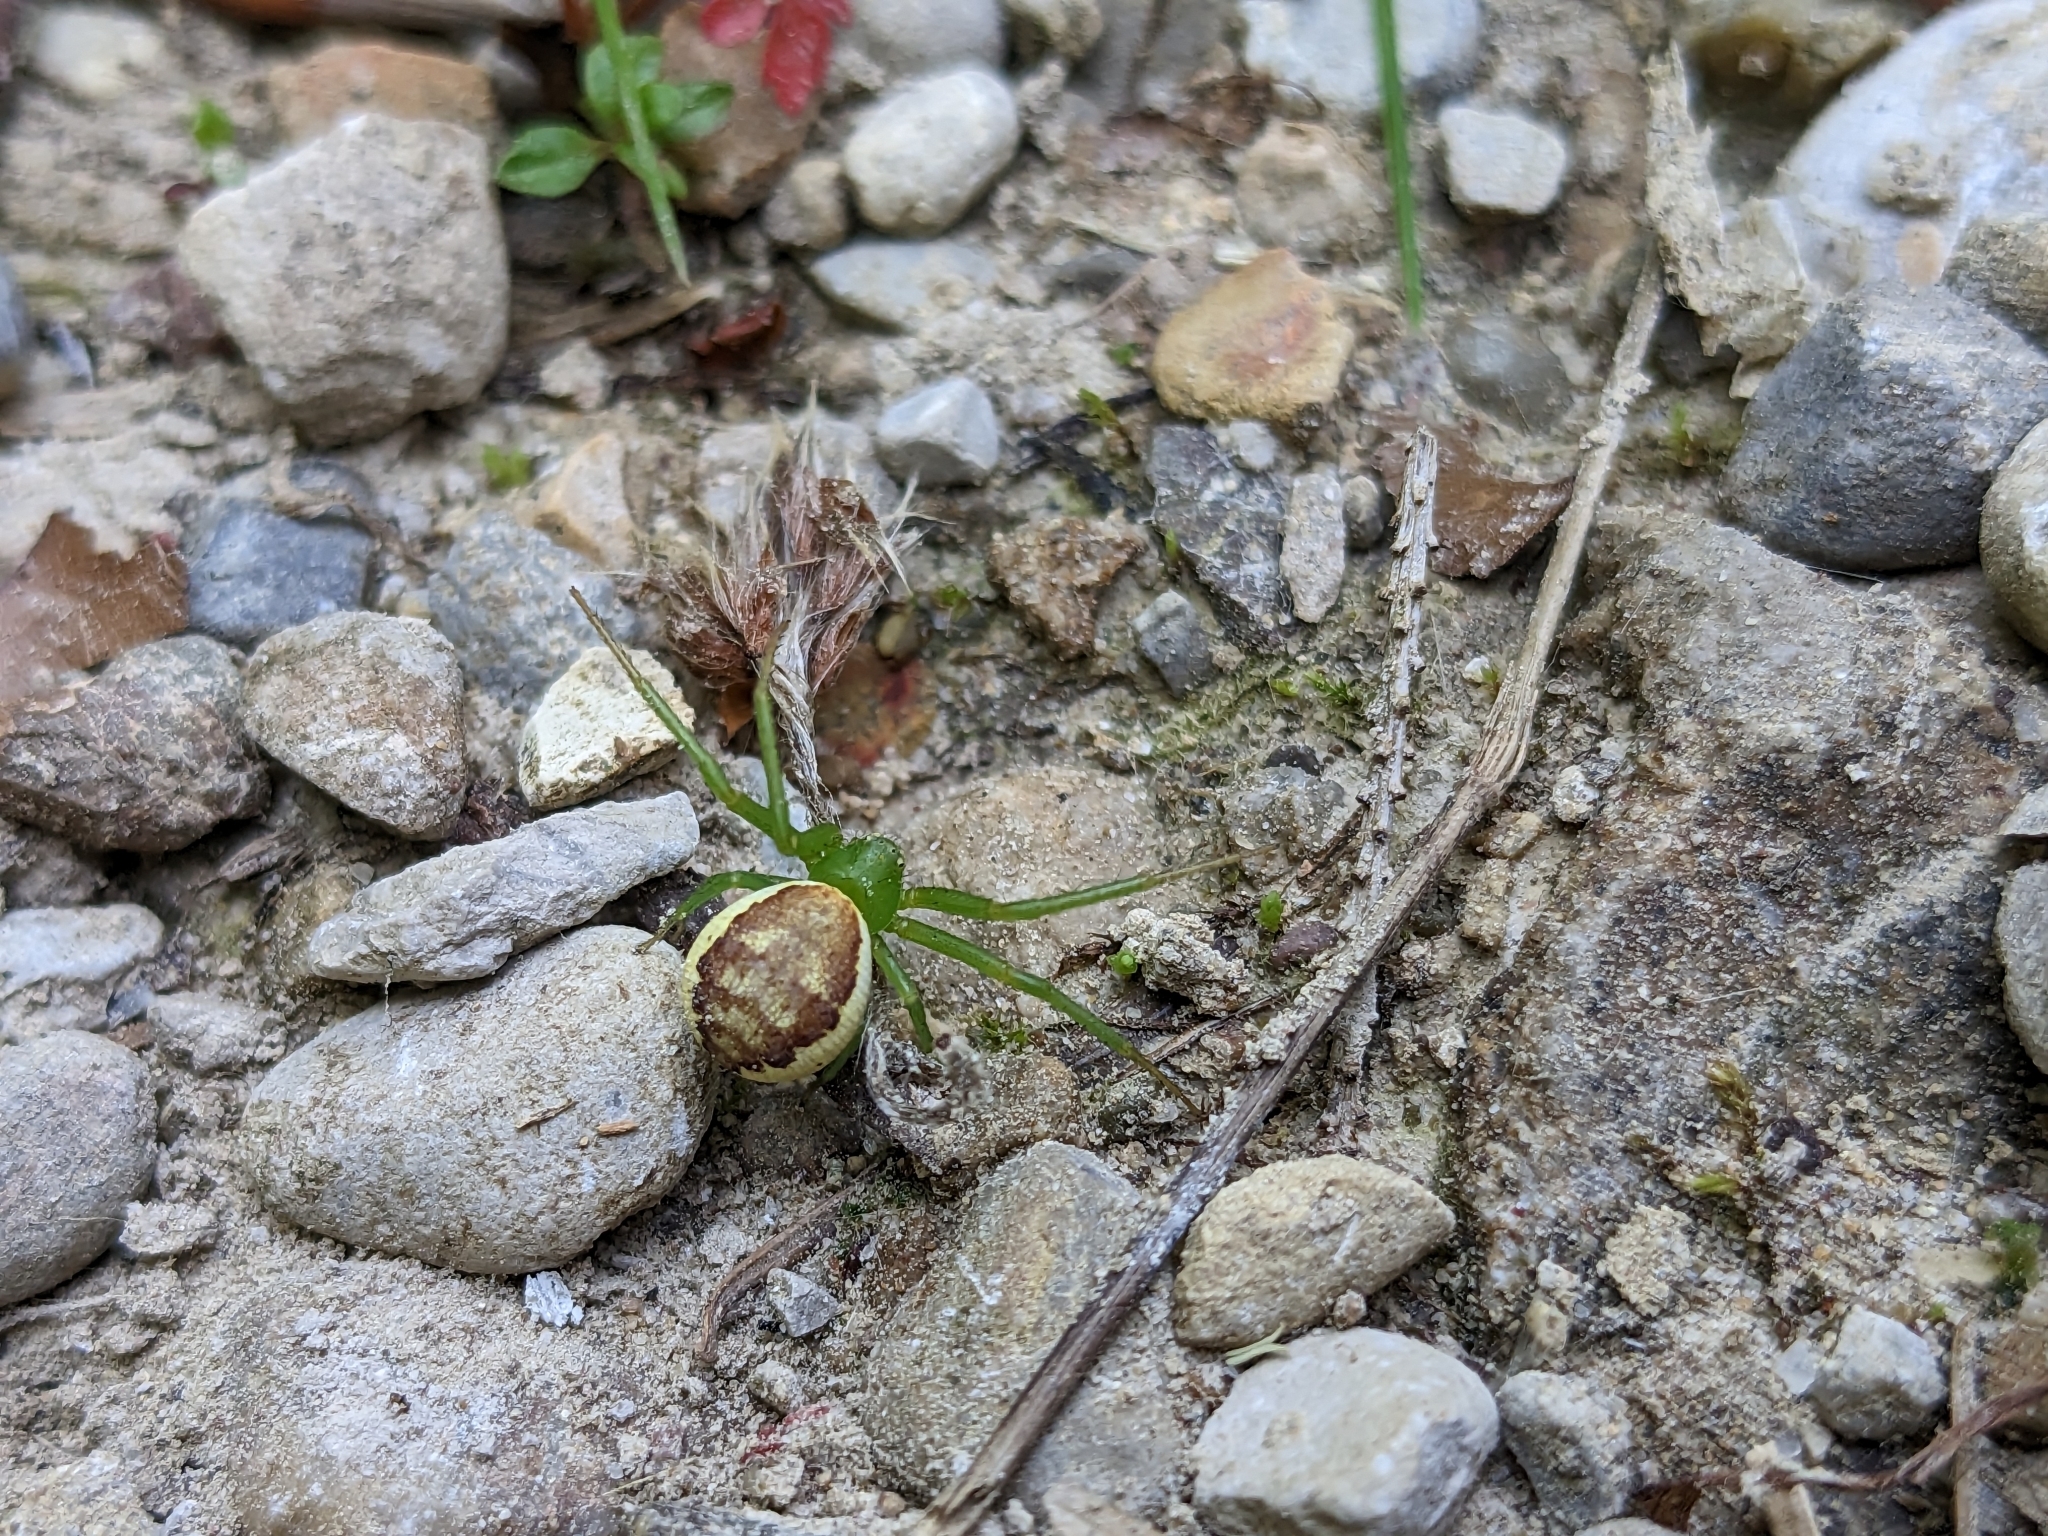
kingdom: Animalia
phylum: Arthropoda
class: Arachnida
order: Araneae
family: Thomisidae
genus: Diaea
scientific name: Diaea dorsata
